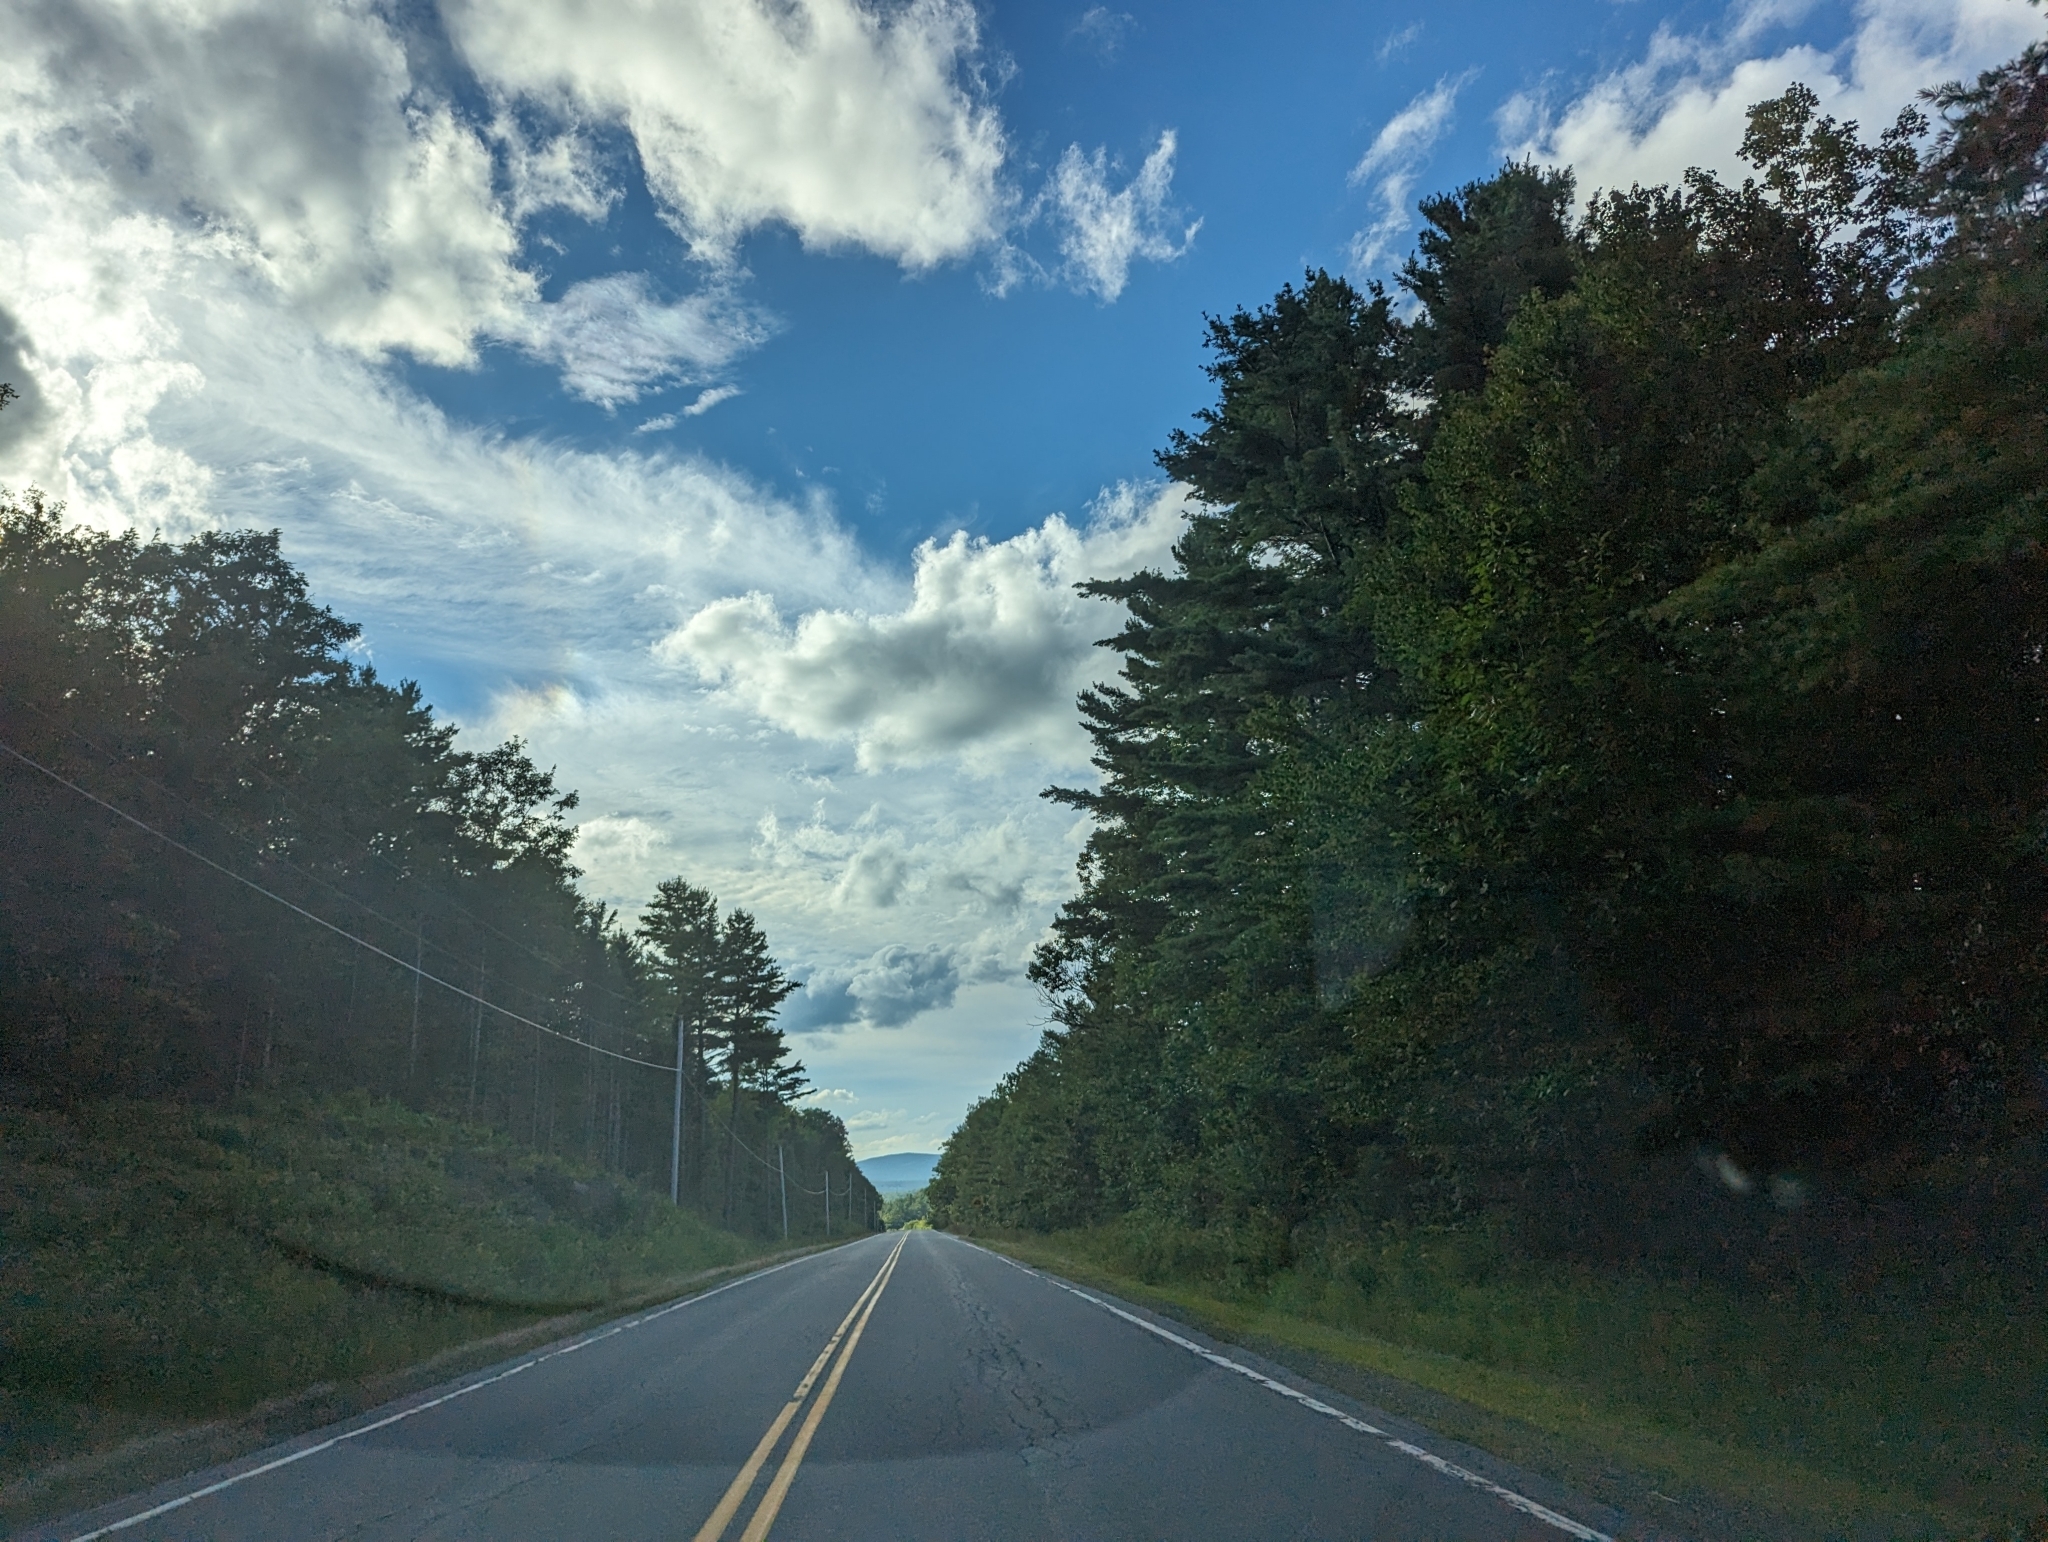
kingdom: Plantae
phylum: Tracheophyta
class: Pinopsida
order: Pinales
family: Pinaceae
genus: Pinus
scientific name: Pinus strobus
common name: Weymouth pine
